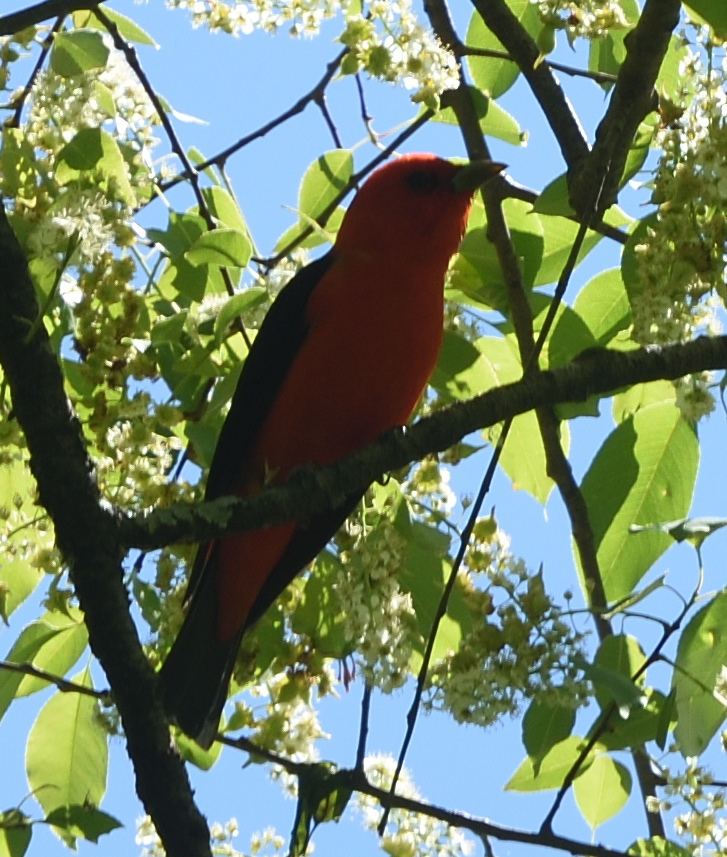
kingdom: Animalia
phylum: Chordata
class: Aves
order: Passeriformes
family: Cardinalidae
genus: Piranga
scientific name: Piranga olivacea
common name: Scarlet tanager
